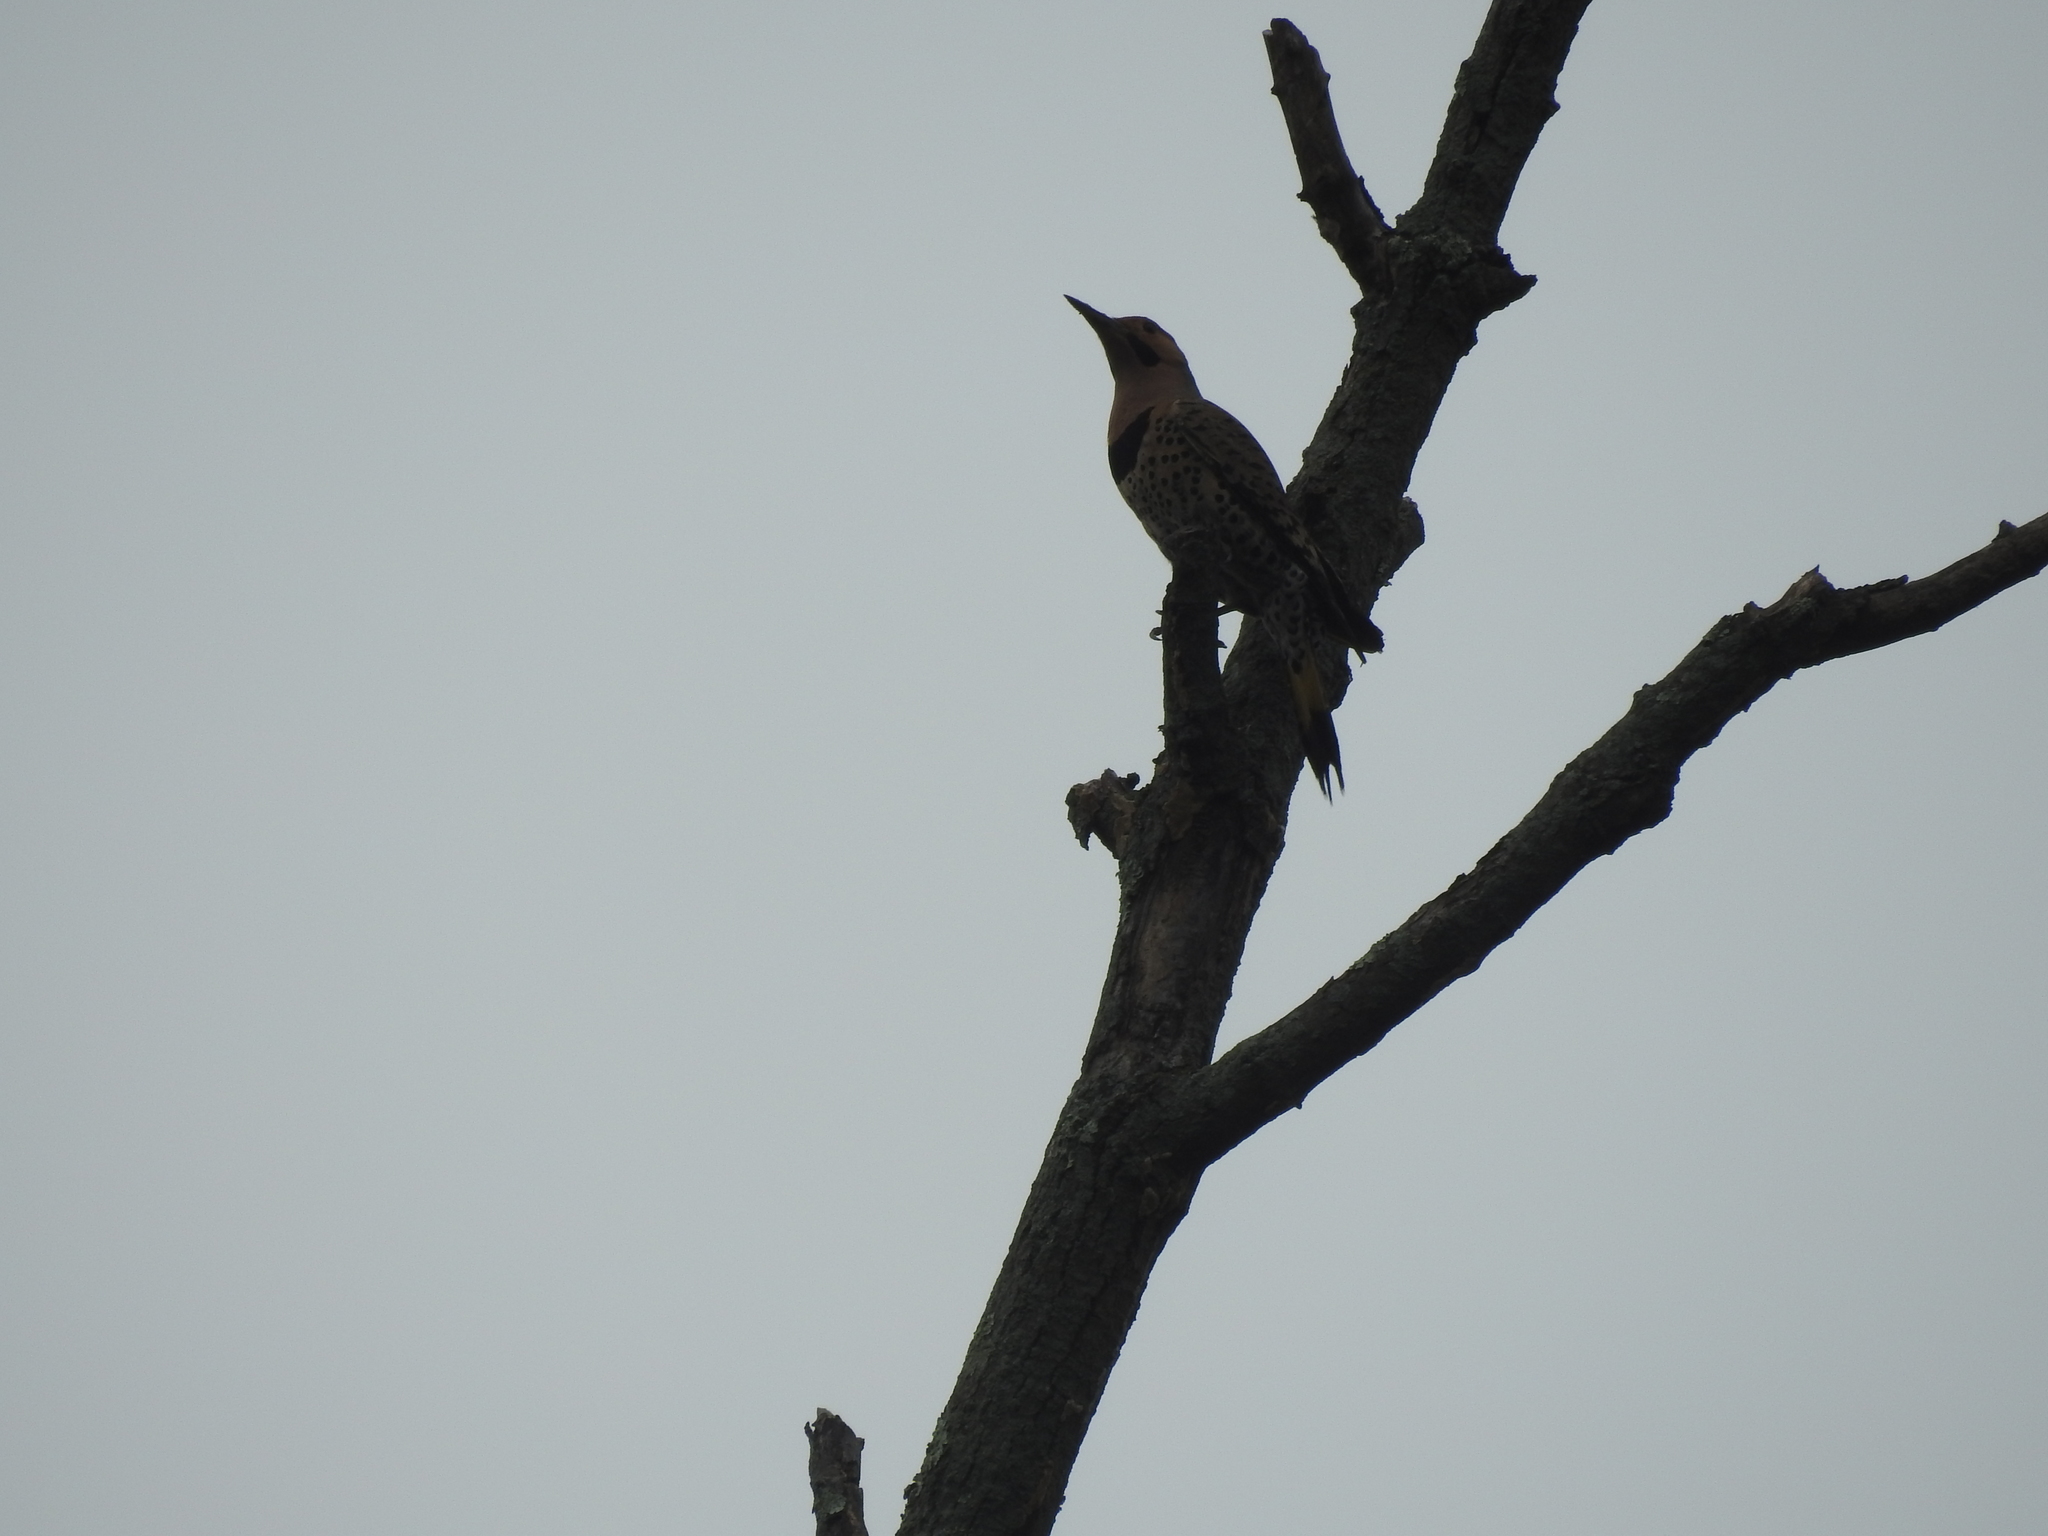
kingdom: Animalia
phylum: Chordata
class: Aves
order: Piciformes
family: Picidae
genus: Colaptes
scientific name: Colaptes auratus
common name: Northern flicker
